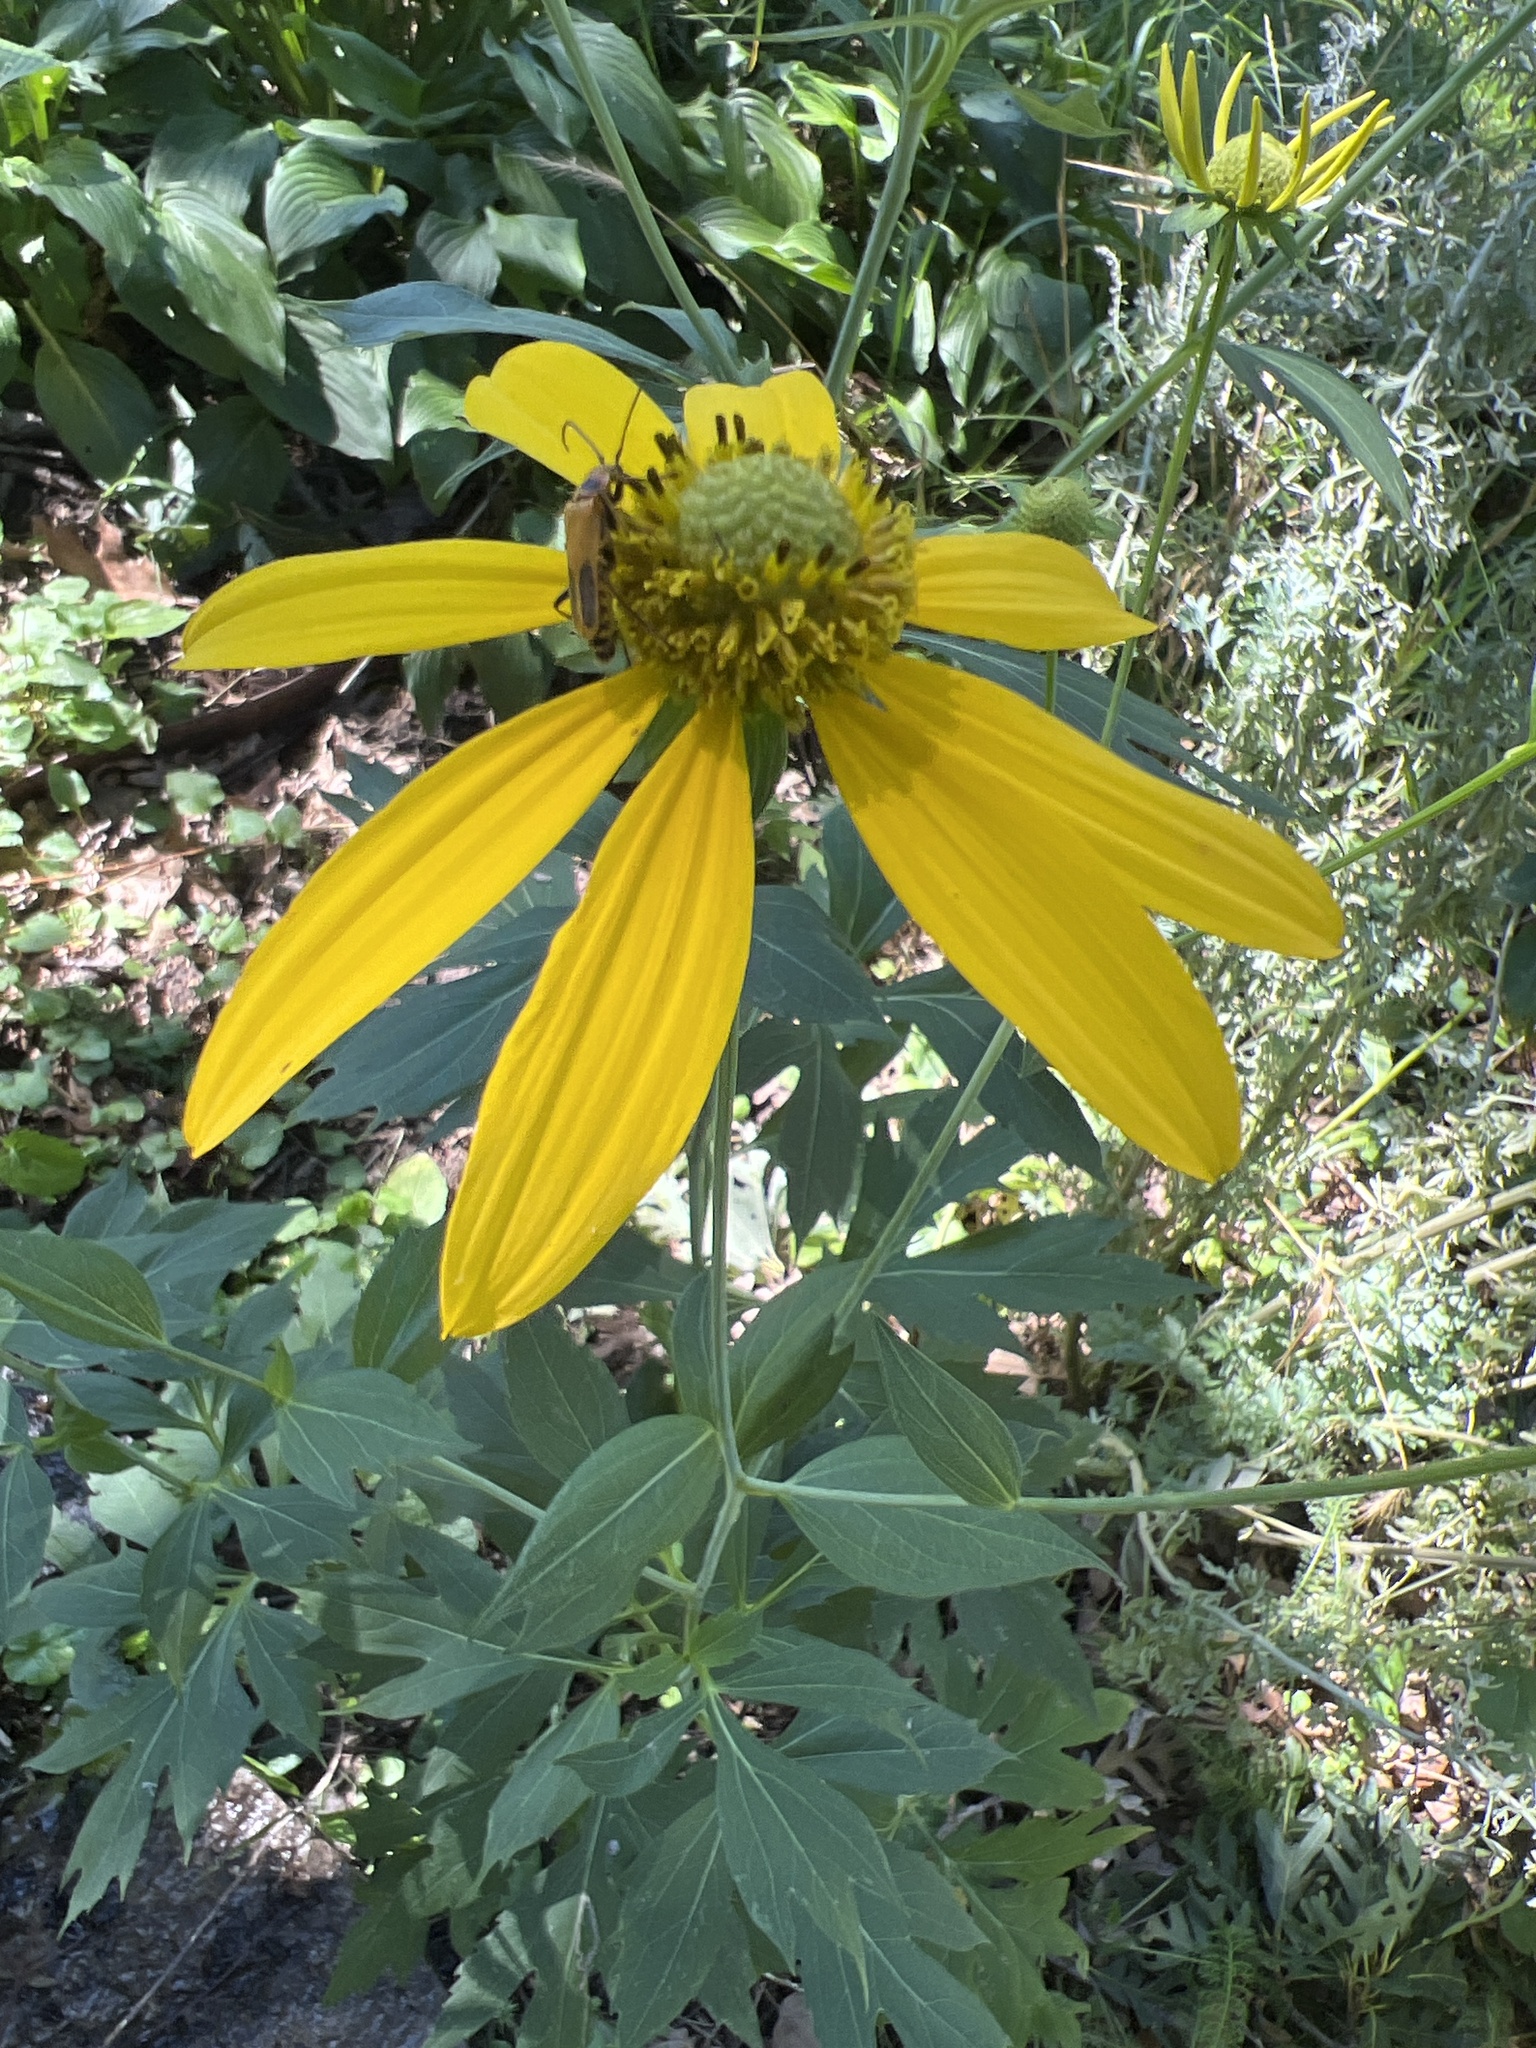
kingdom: Plantae
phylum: Tracheophyta
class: Magnoliopsida
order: Asterales
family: Asteraceae
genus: Rudbeckia
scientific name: Rudbeckia laciniata
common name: Coneflower
